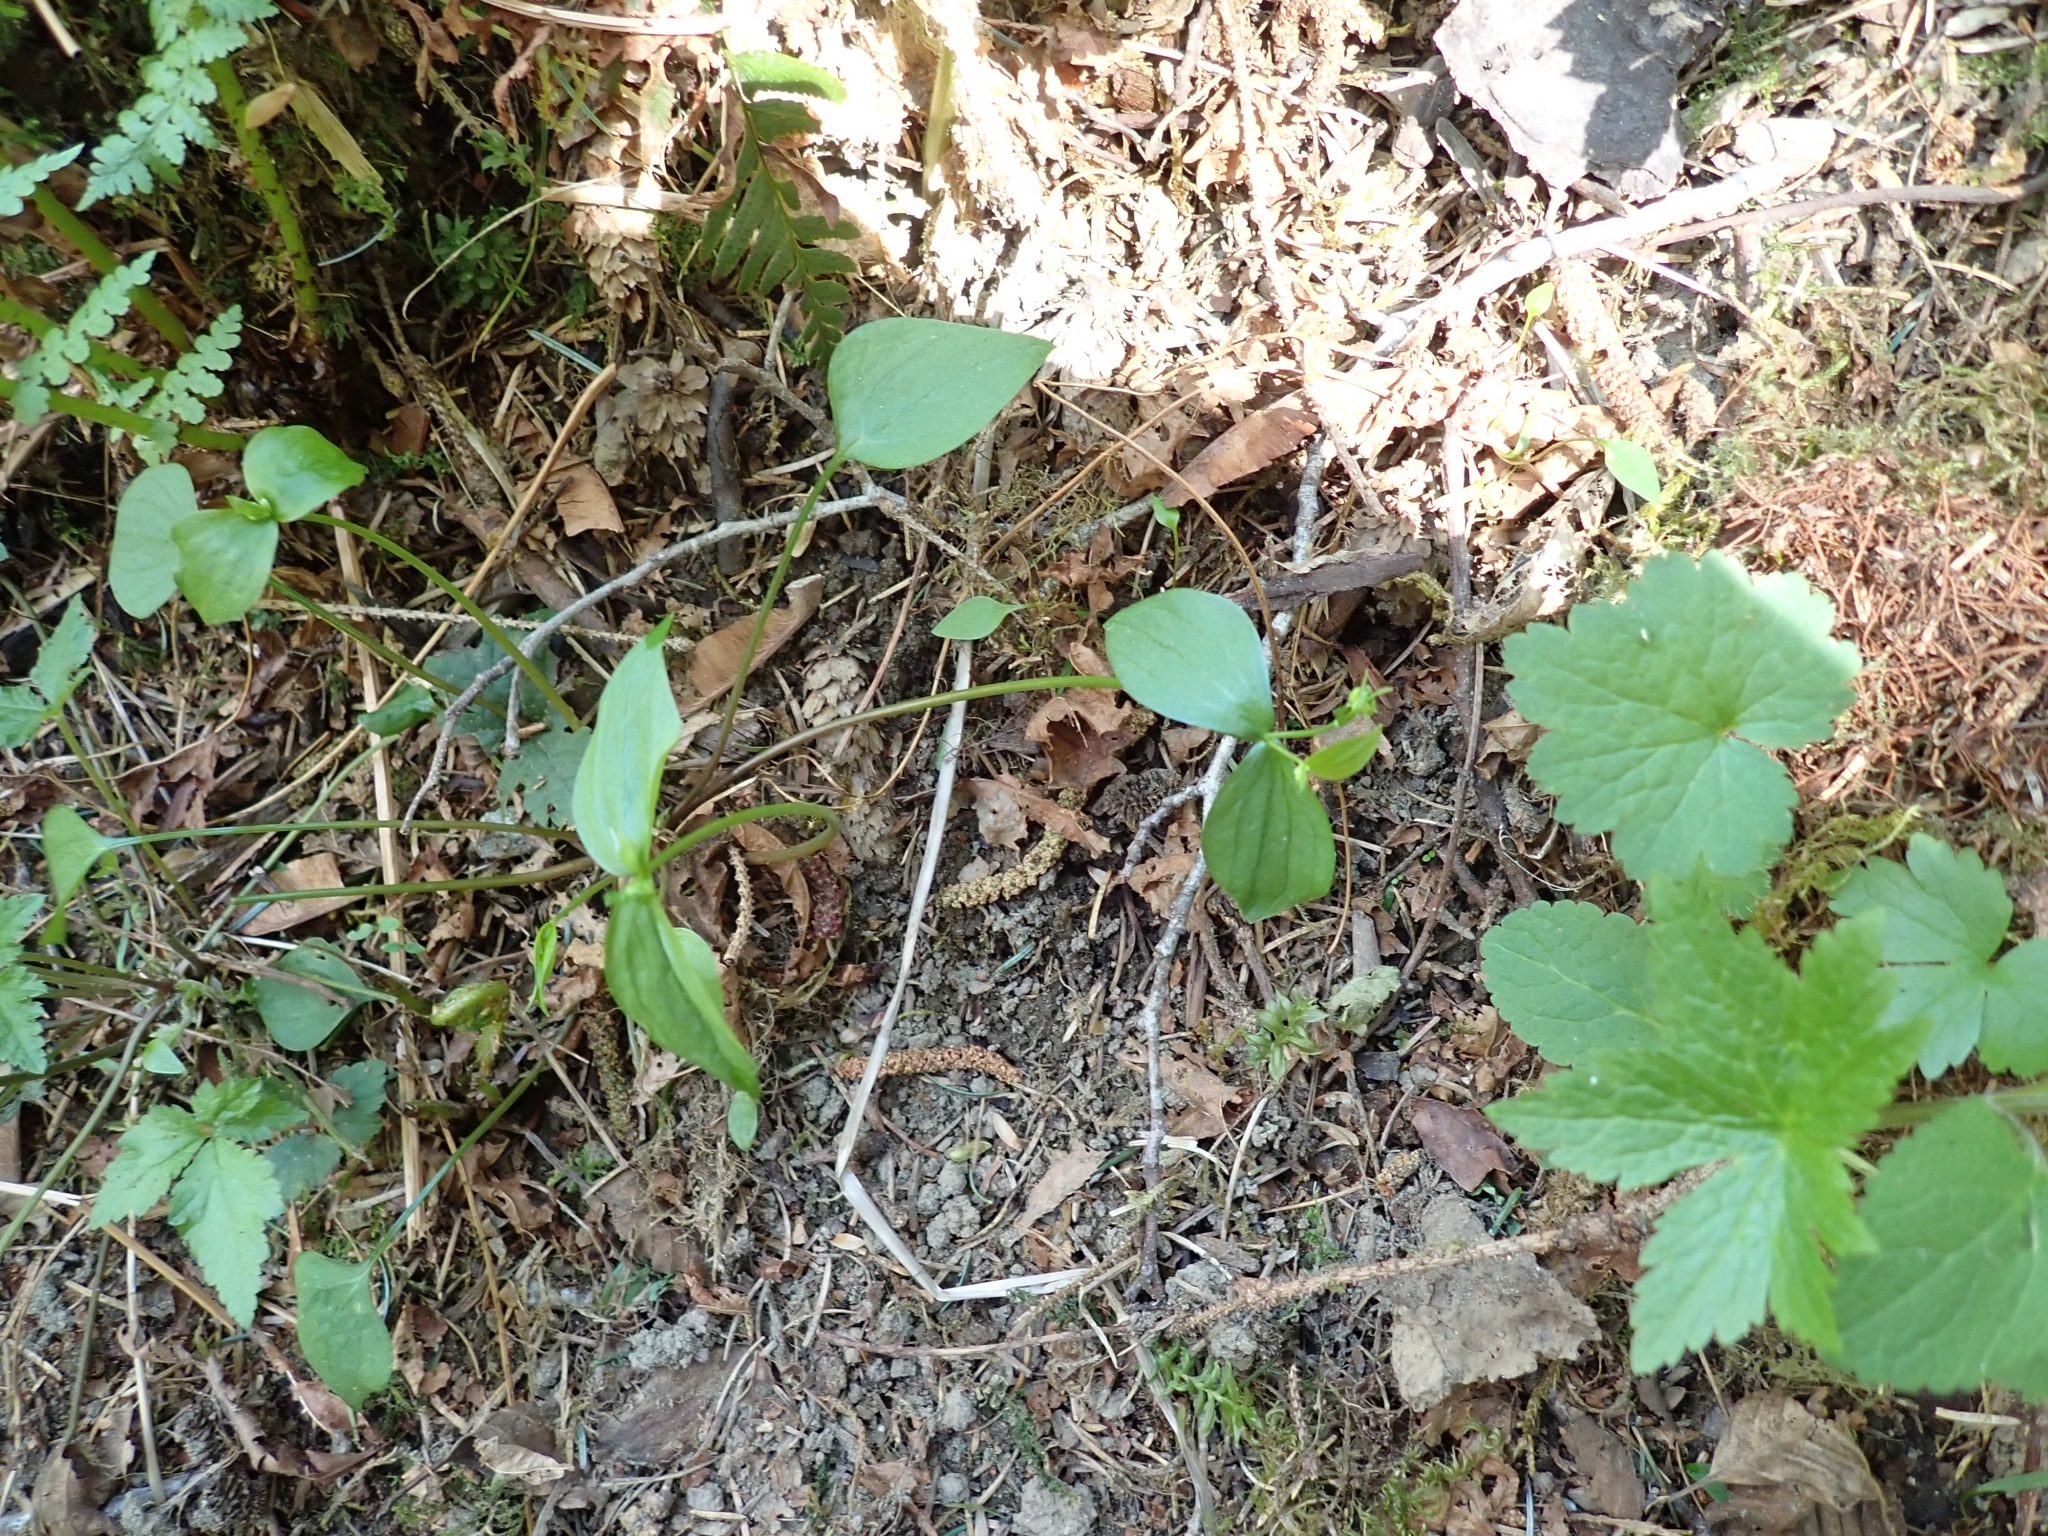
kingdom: Plantae
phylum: Tracheophyta
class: Magnoliopsida
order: Caryophyllales
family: Montiaceae
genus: Claytonia
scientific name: Claytonia sibirica
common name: Pink purslane
